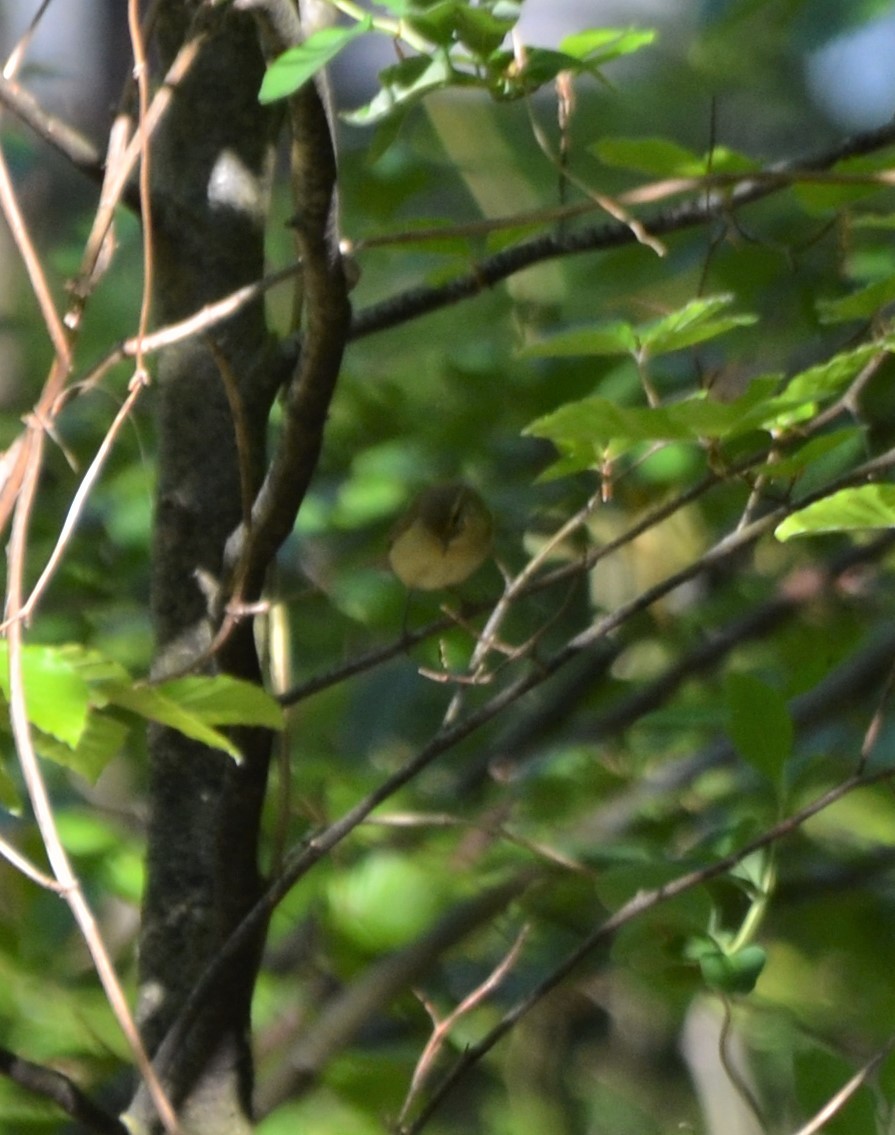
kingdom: Animalia
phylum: Chordata
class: Aves
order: Passeriformes
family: Phylloscopidae
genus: Phylloscopus
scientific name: Phylloscopus collybita
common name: Common chiffchaff
